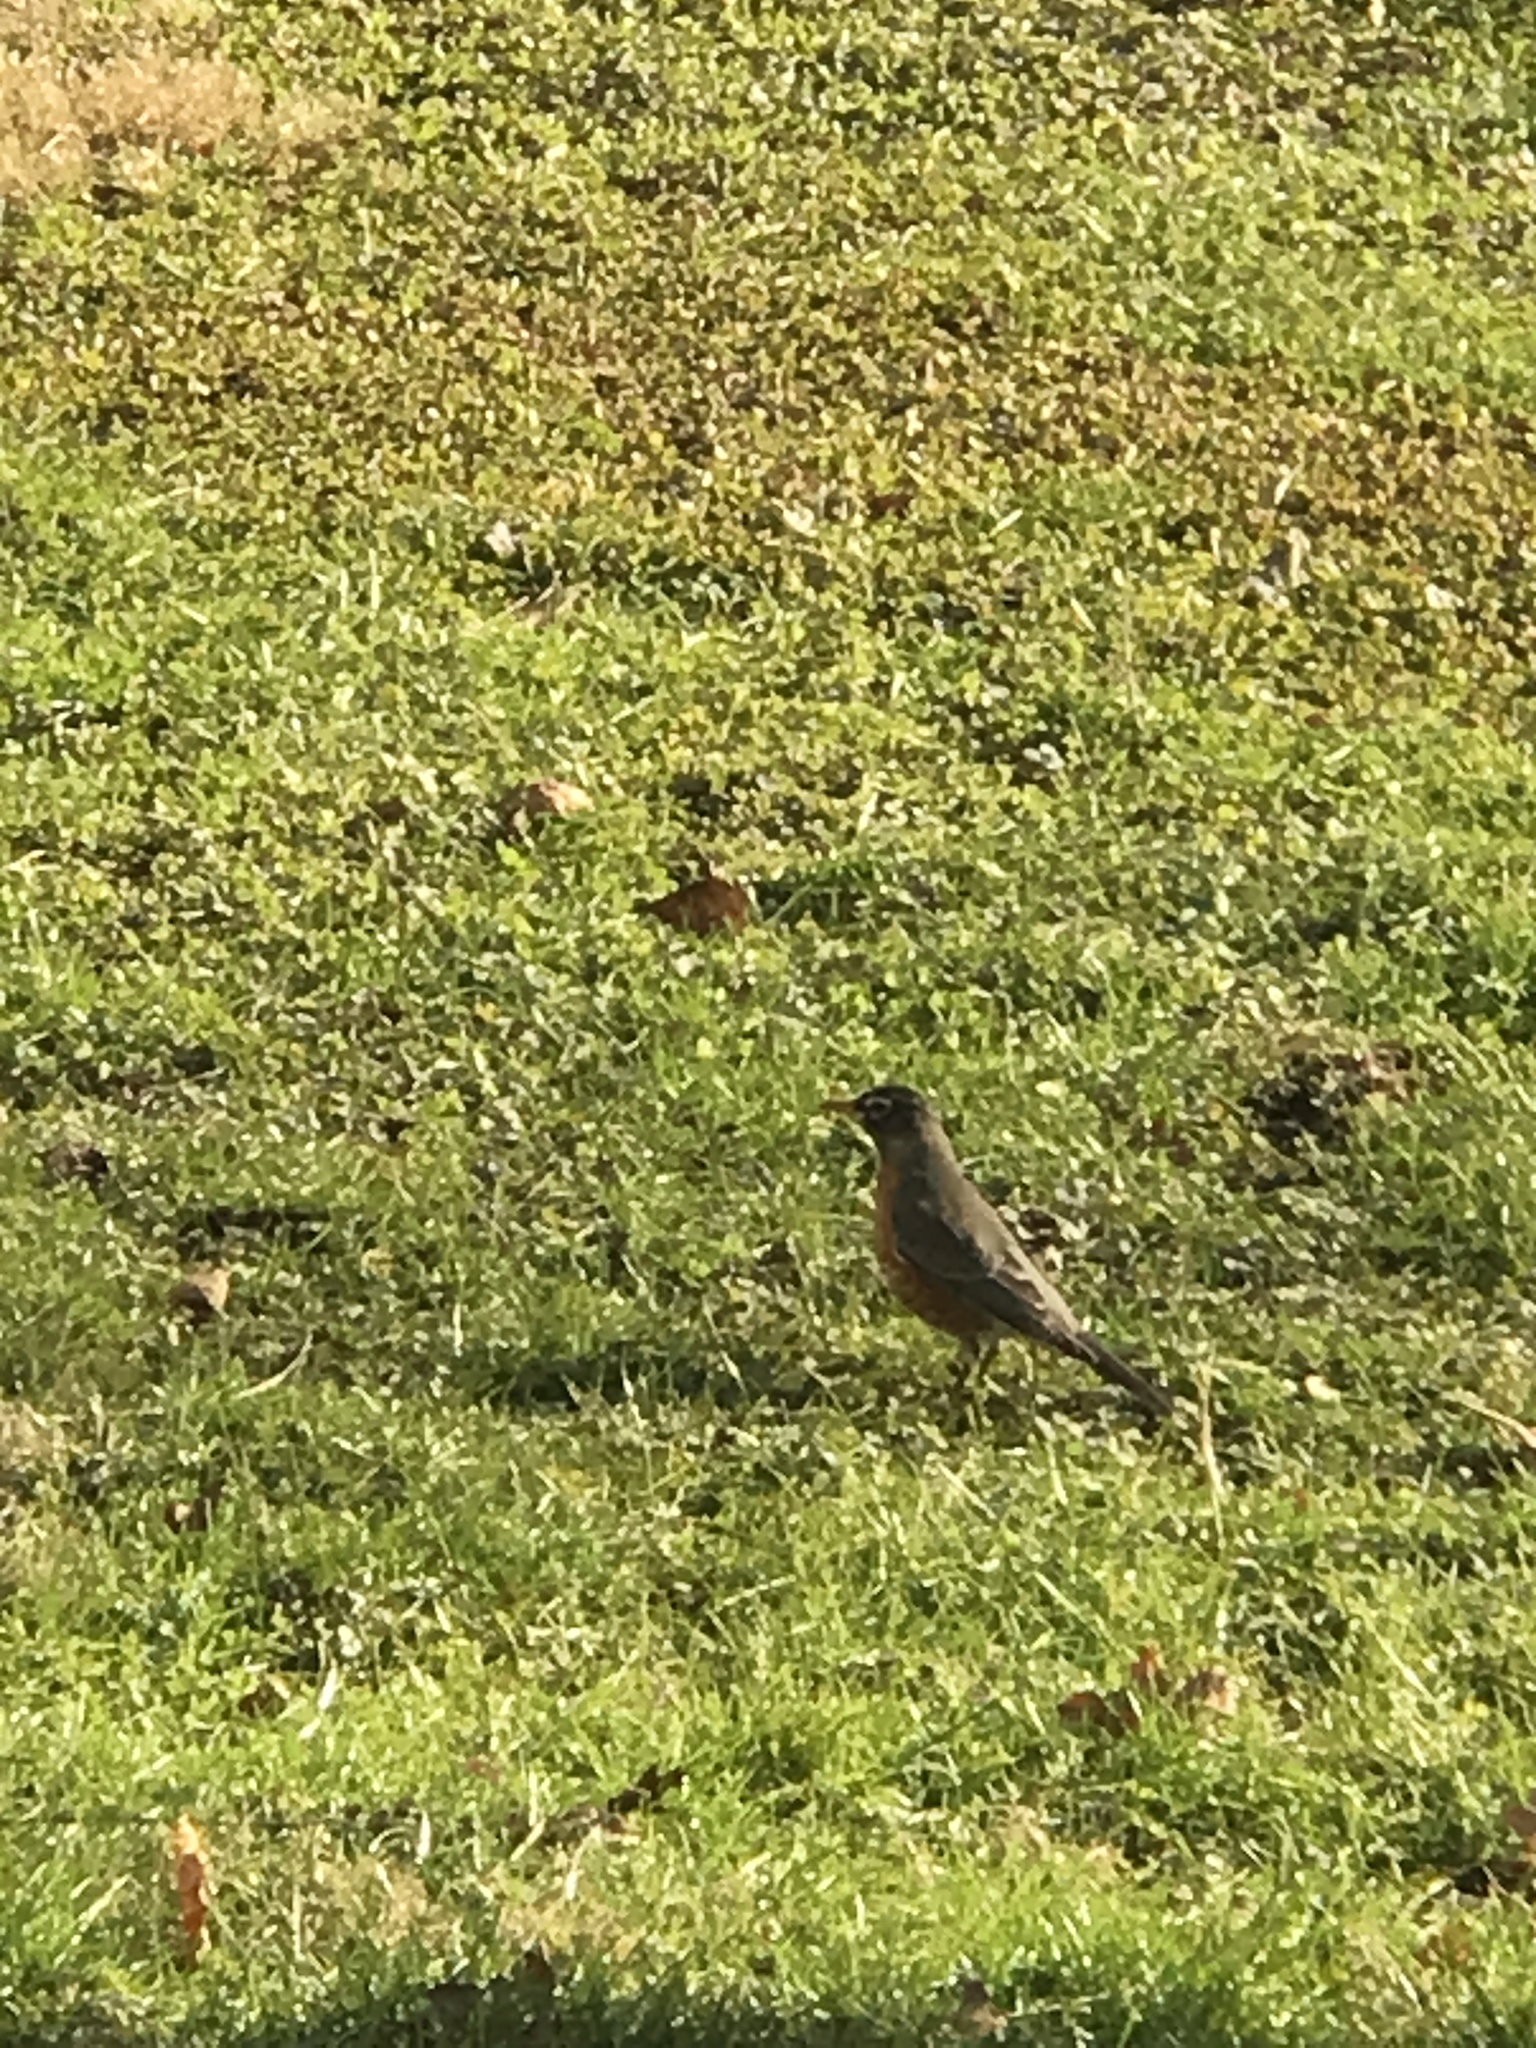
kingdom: Animalia
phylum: Chordata
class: Aves
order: Passeriformes
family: Turdidae
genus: Turdus
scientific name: Turdus migratorius
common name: American robin
